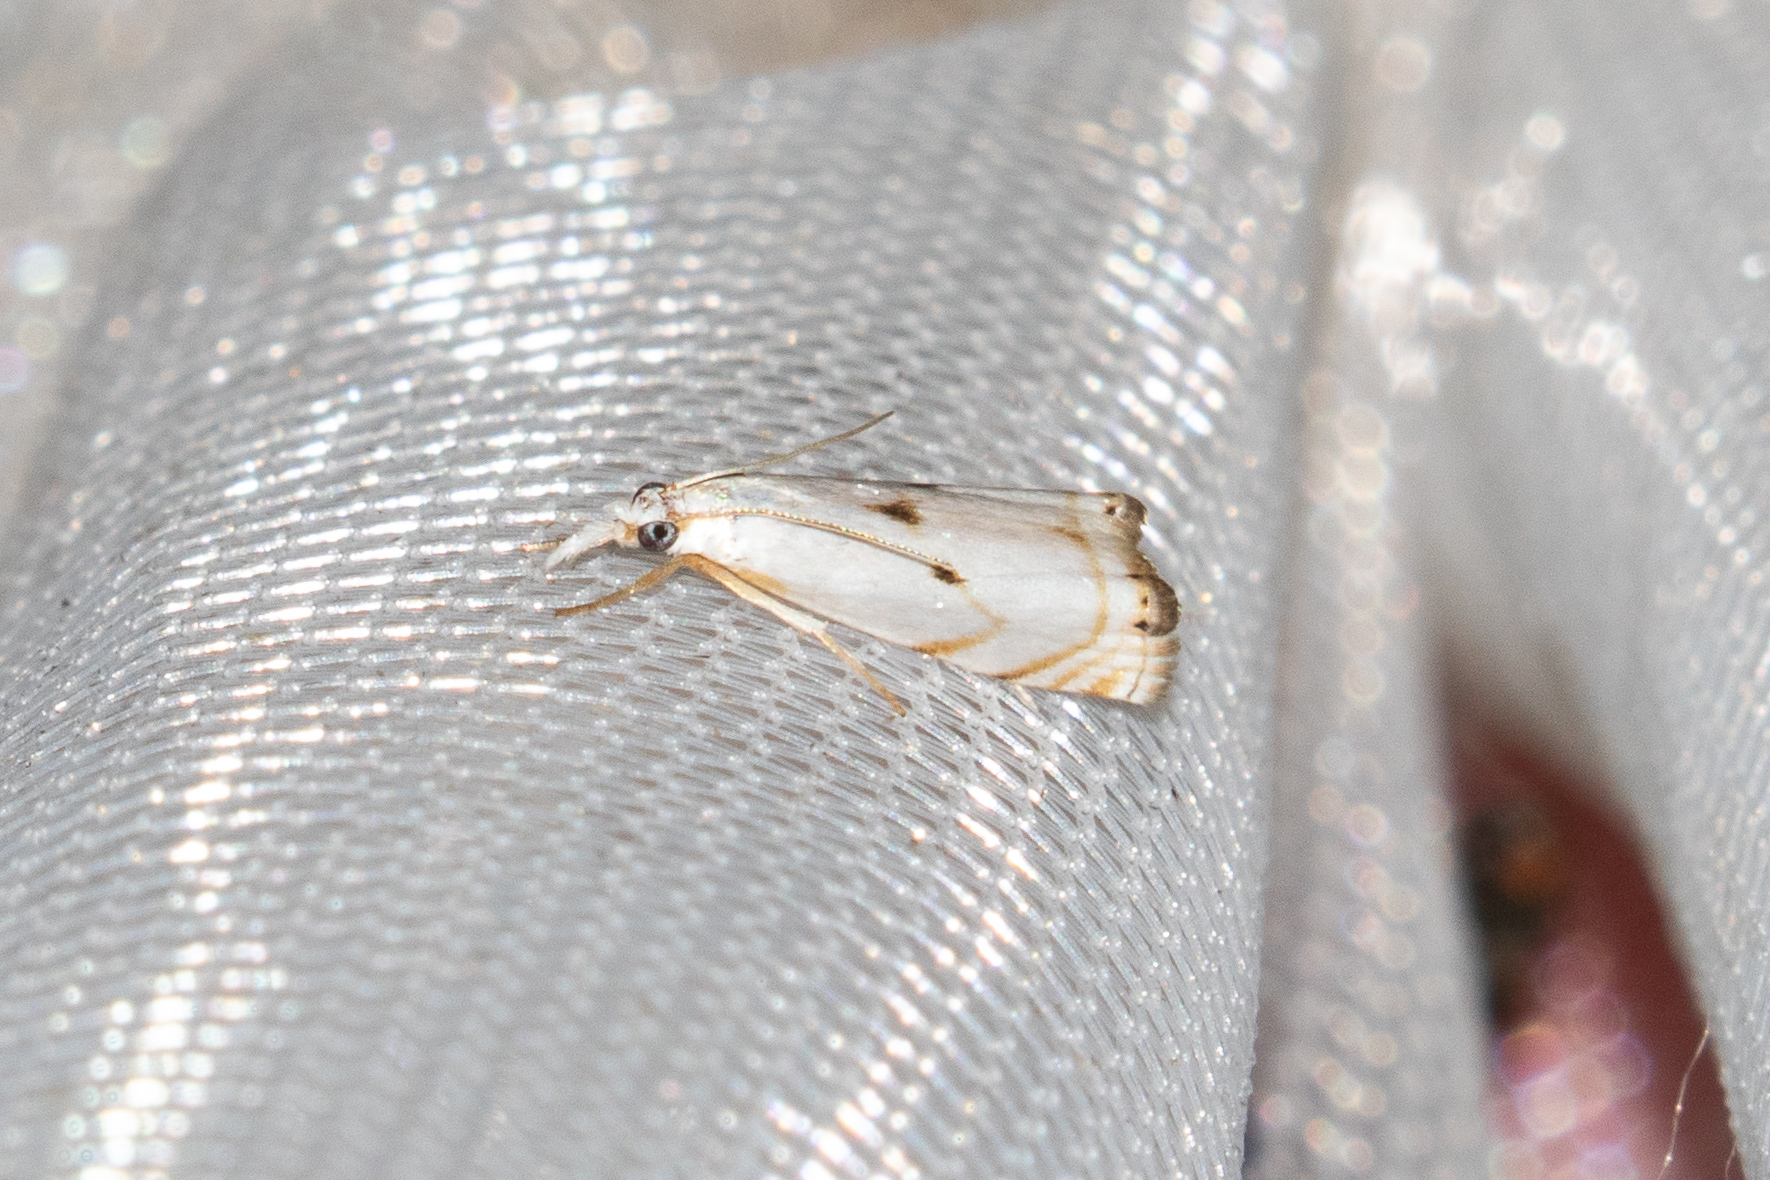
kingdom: Animalia
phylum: Arthropoda
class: Insecta
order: Lepidoptera
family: Crambidae
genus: Microcrambus
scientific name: Microcrambus biguttellus
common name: Gold-stripe grass-veneer moth
